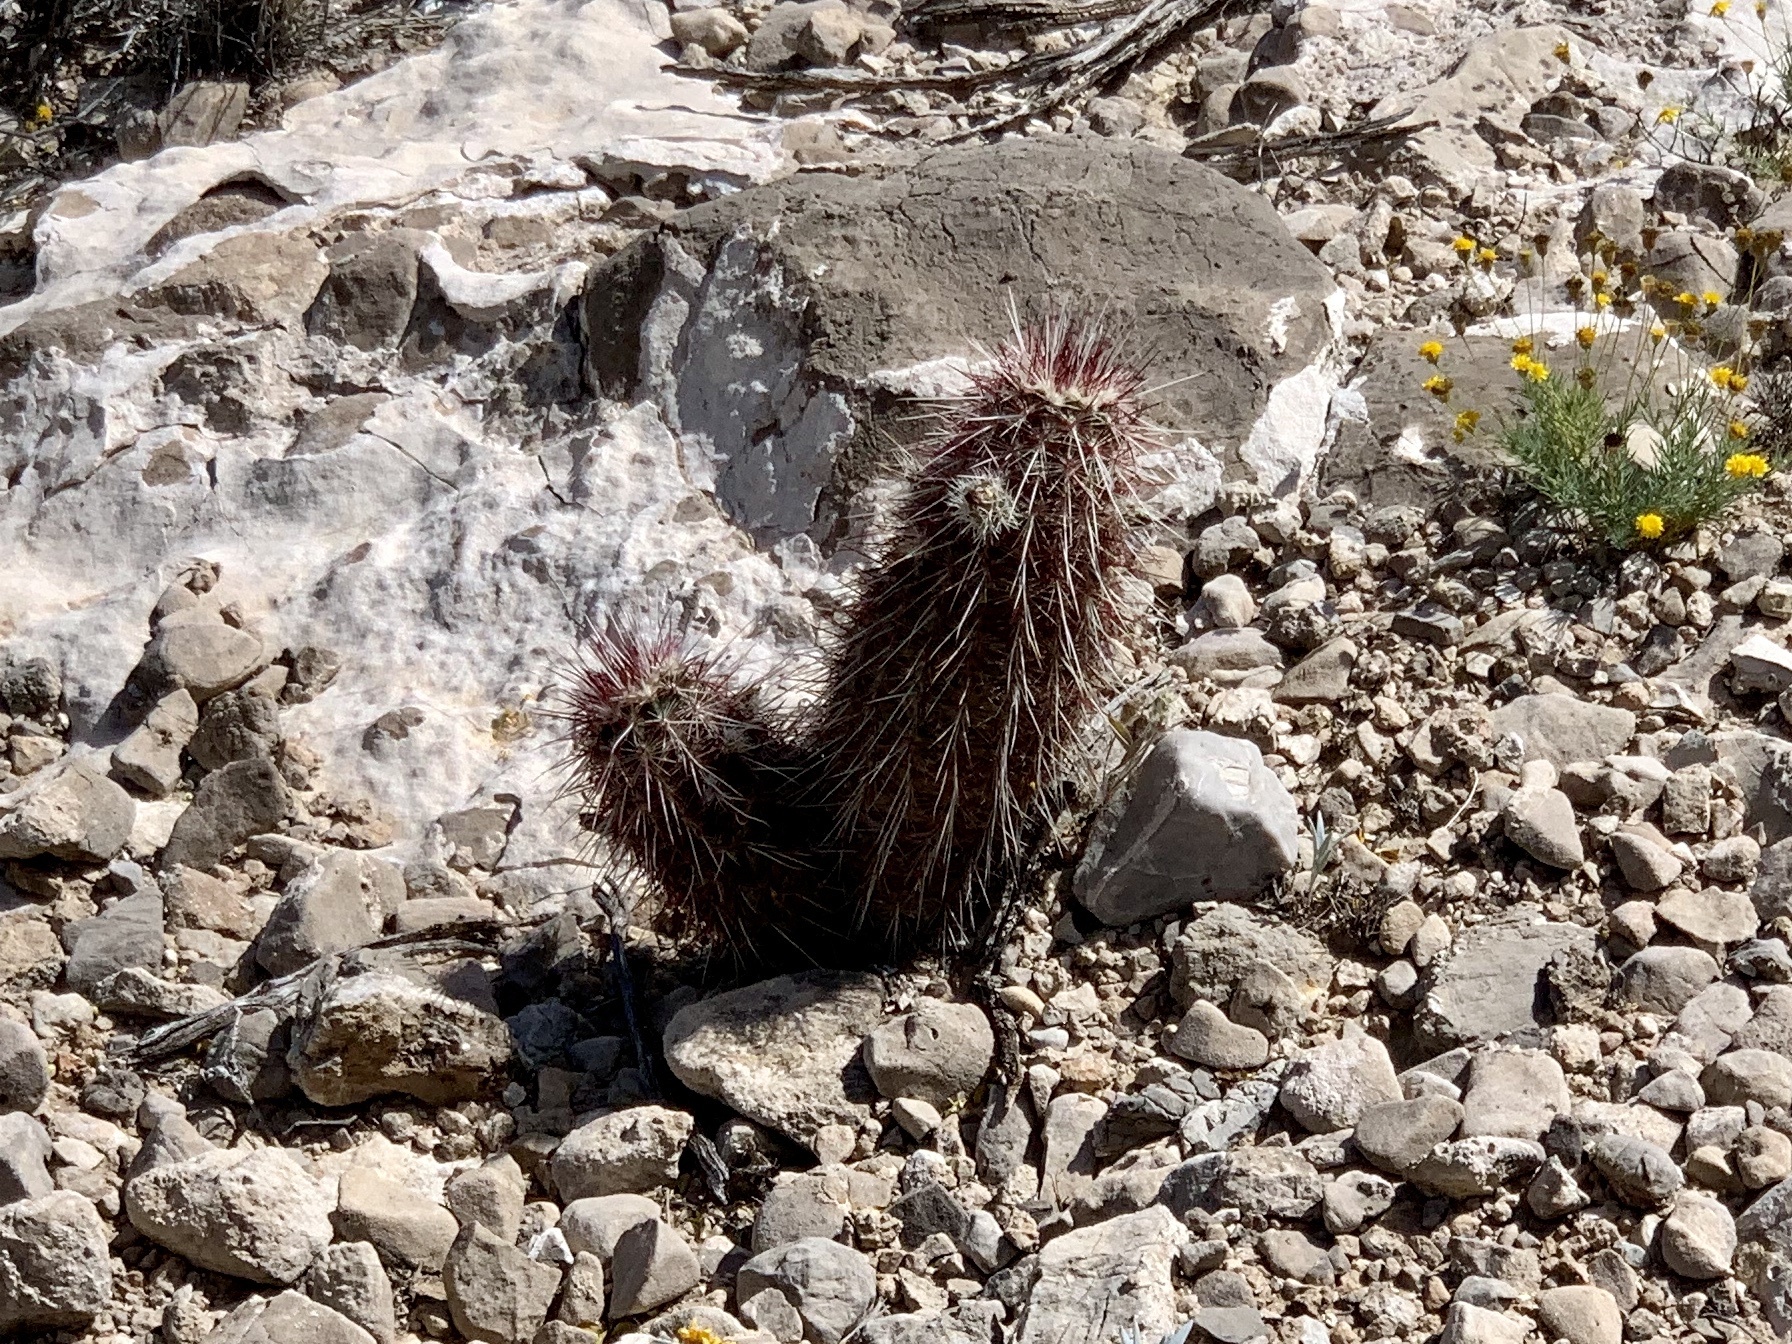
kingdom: Plantae
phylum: Tracheophyta
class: Magnoliopsida
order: Caryophyllales
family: Cactaceae
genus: Echinocereus
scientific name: Echinocereus viridiflorus
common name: Nylon hedgehog cactus
